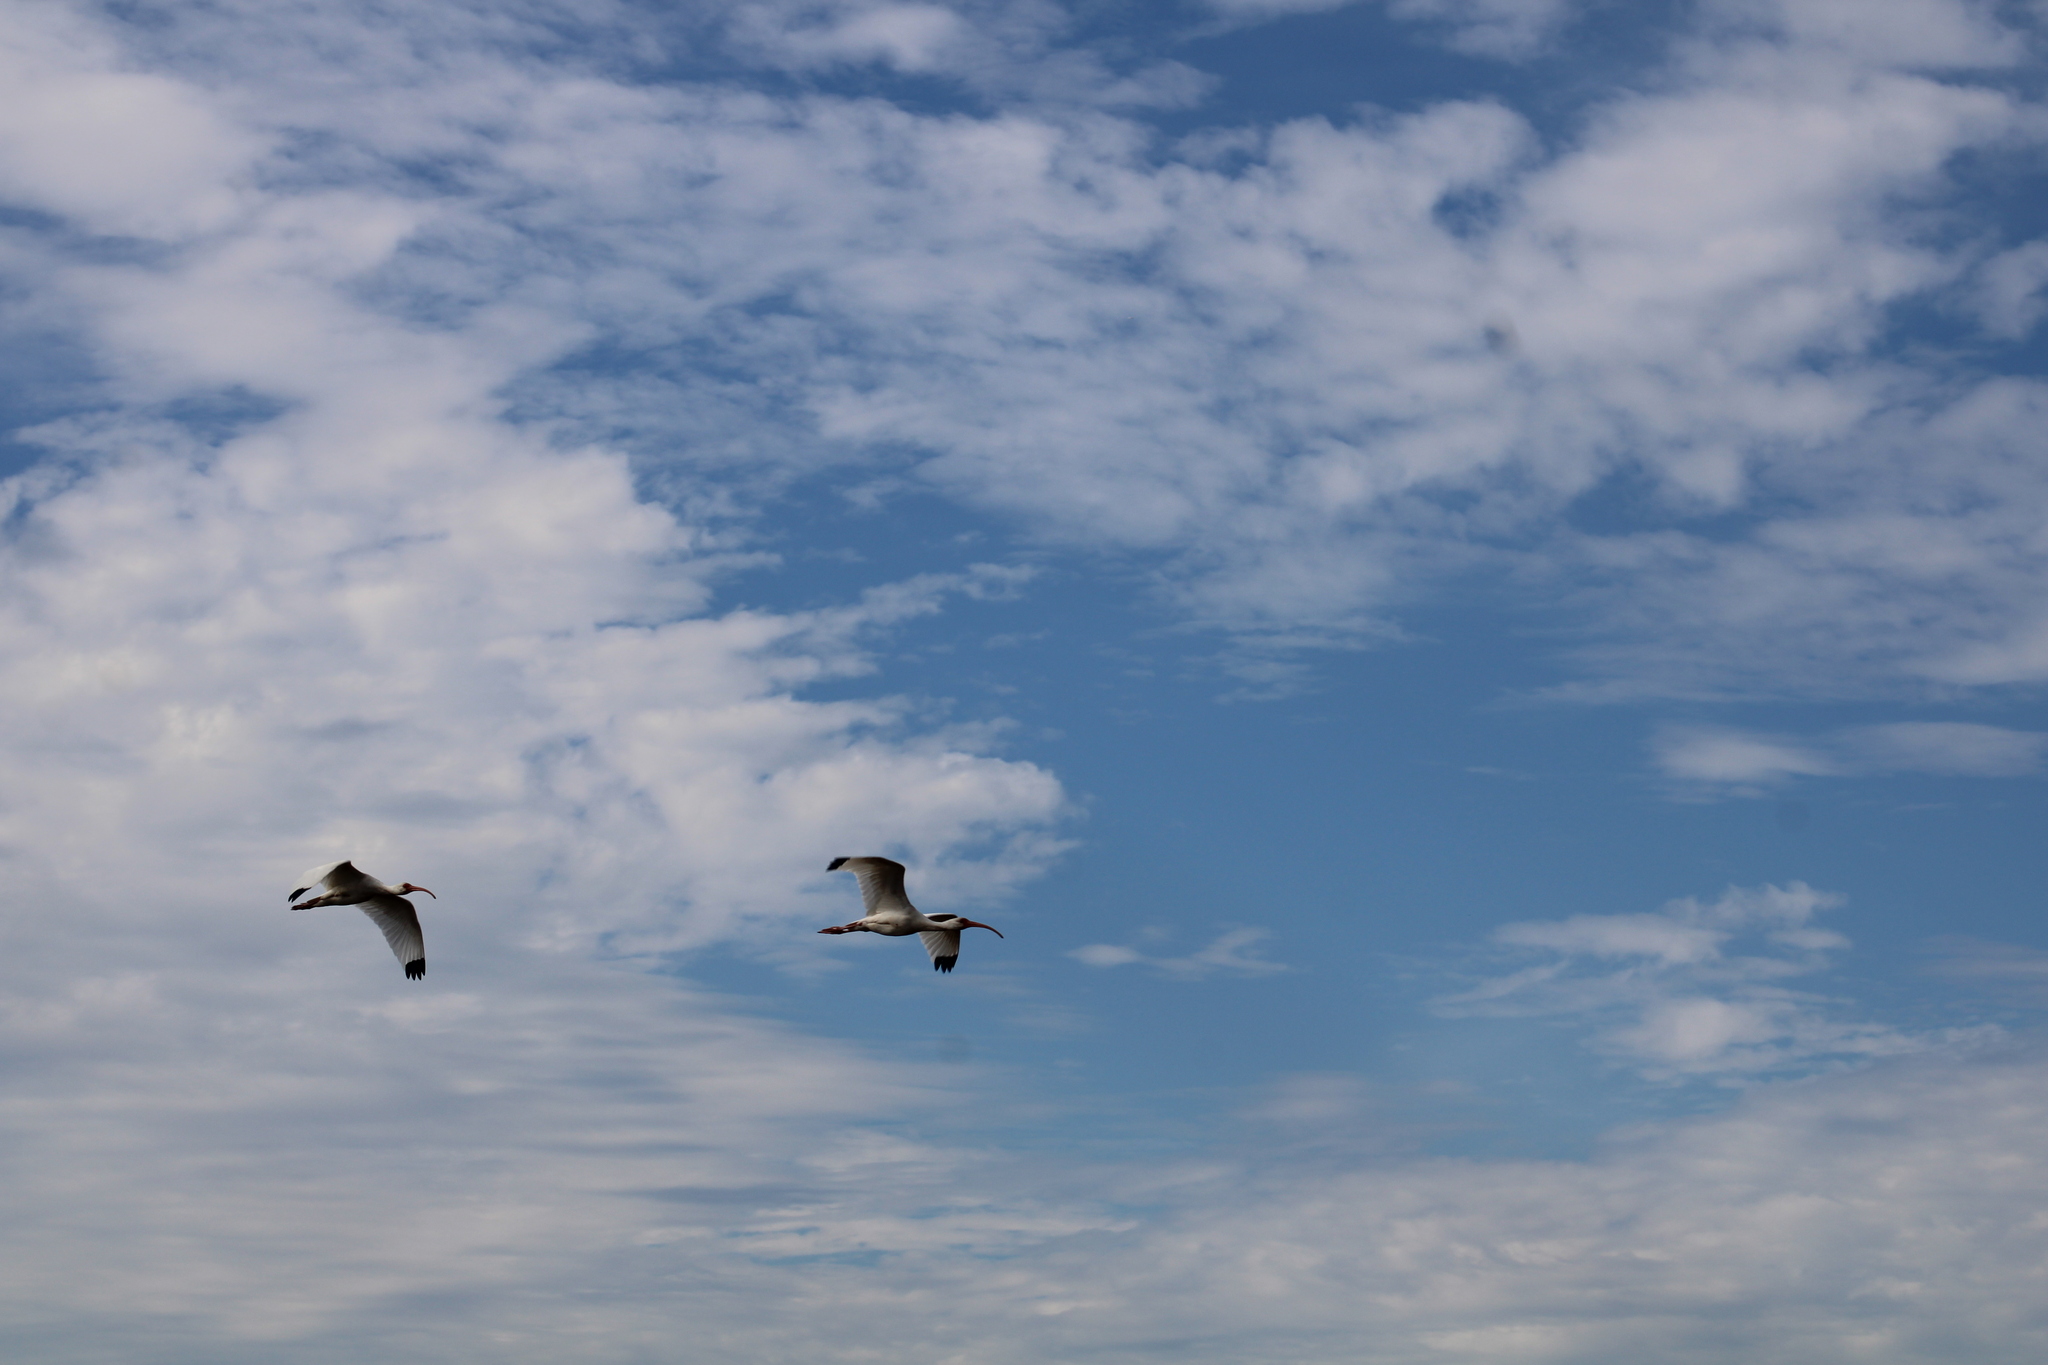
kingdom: Animalia
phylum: Chordata
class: Aves
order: Pelecaniformes
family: Threskiornithidae
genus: Eudocimus
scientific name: Eudocimus albus
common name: White ibis
